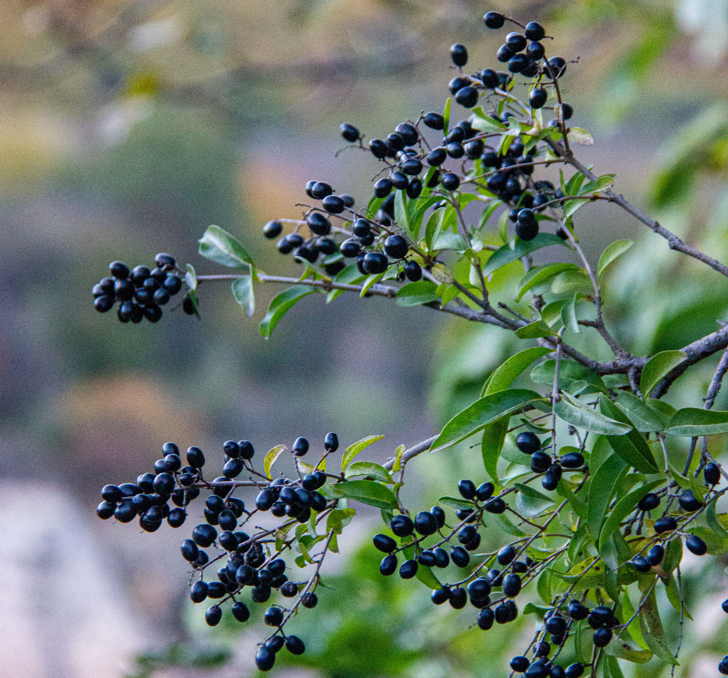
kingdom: Plantae
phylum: Tracheophyta
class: Magnoliopsida
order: Lamiales
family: Oleaceae
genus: Ligustrum
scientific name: Ligustrum vulgare
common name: Wild privet
